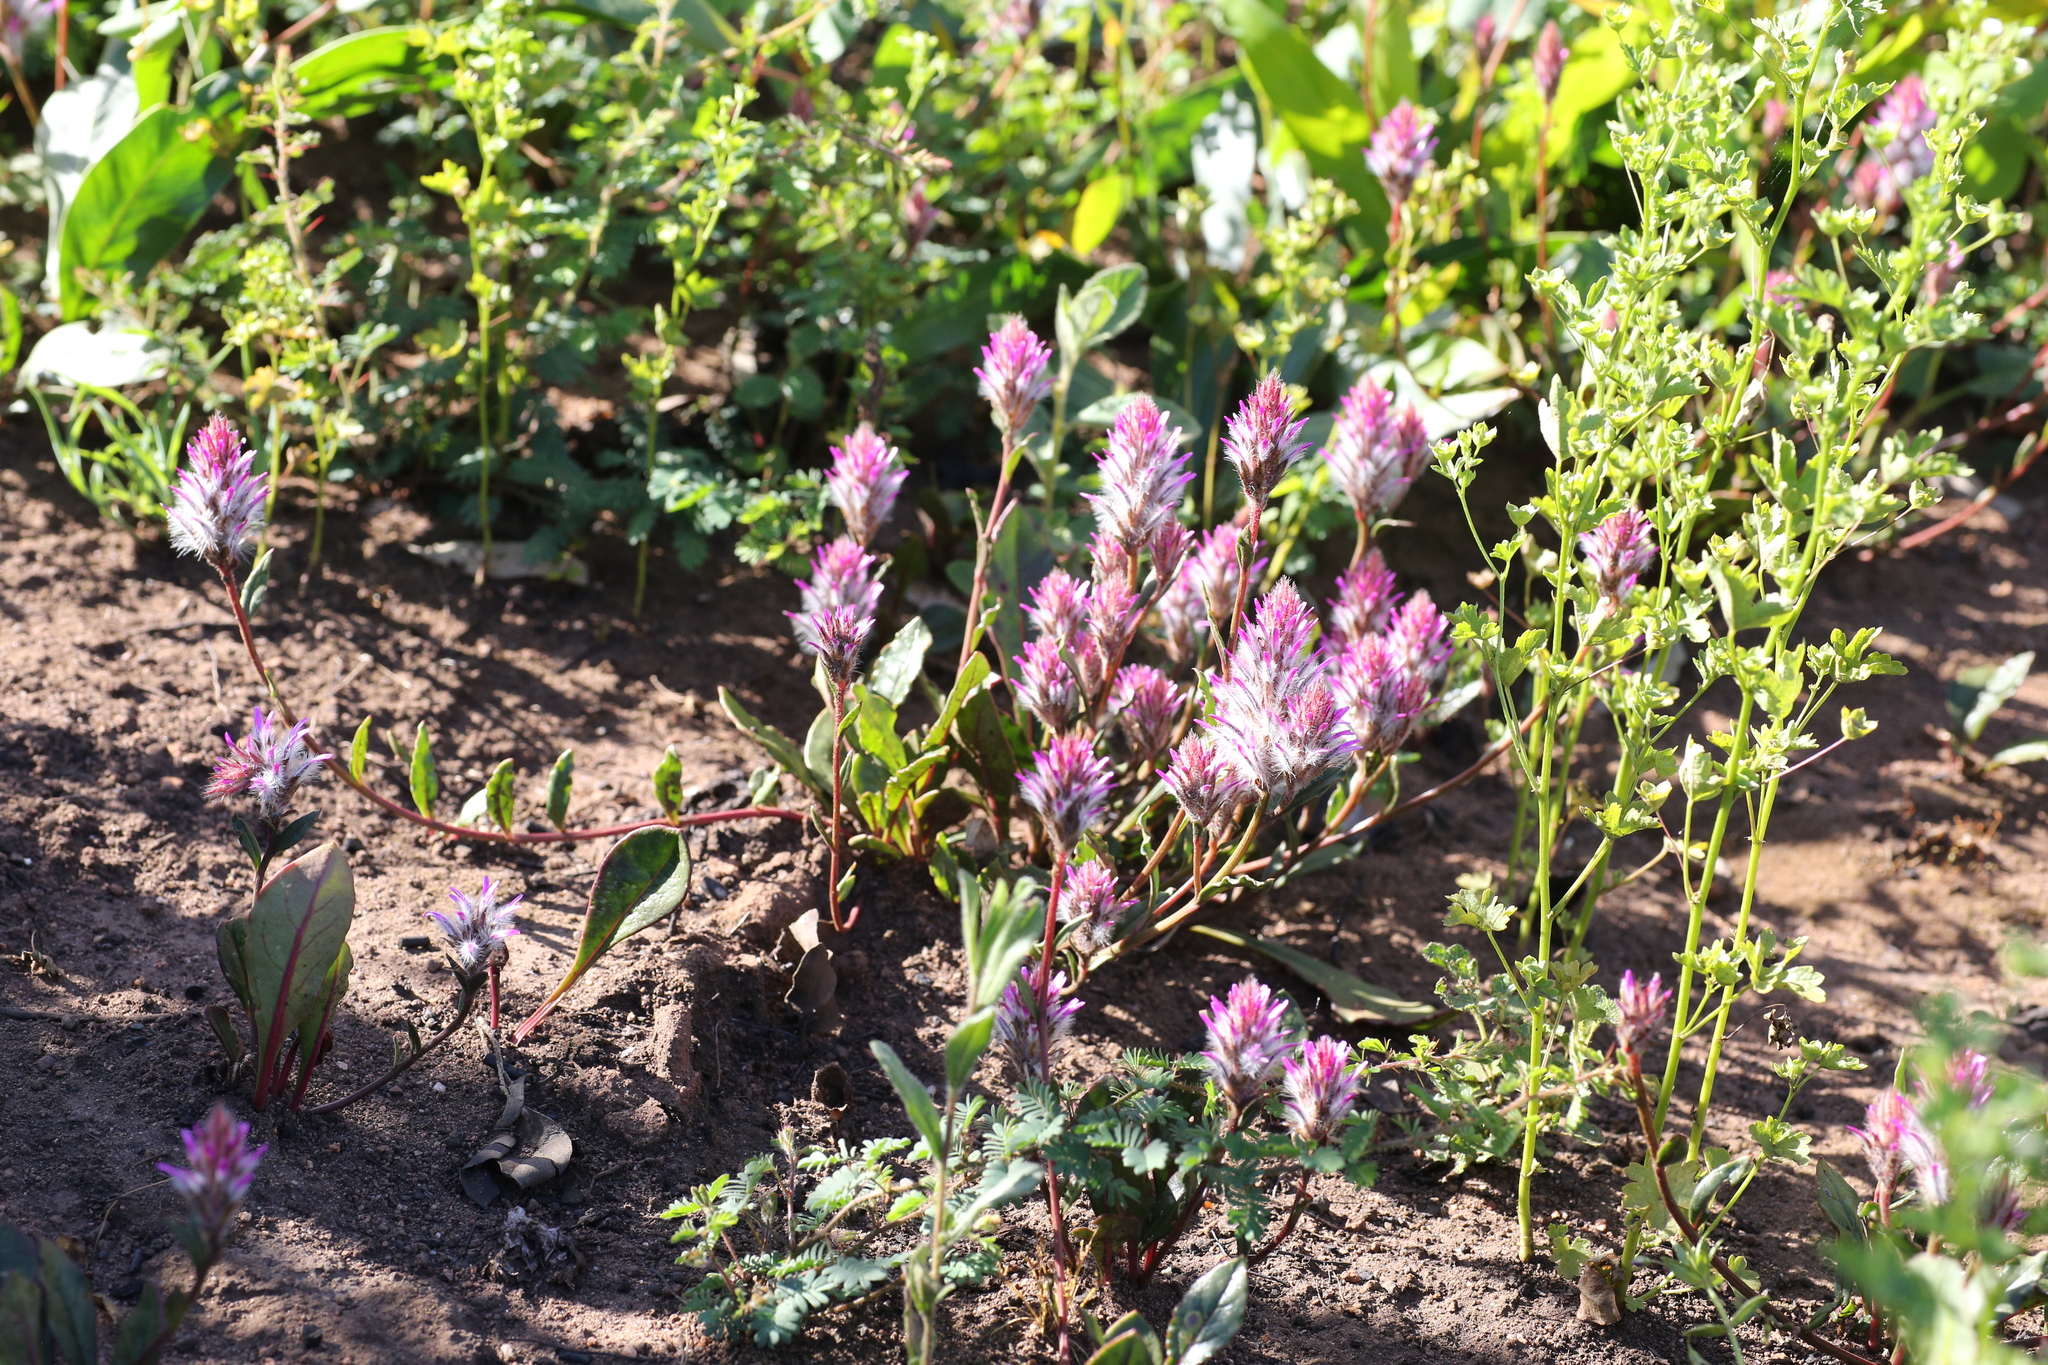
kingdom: Plantae
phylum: Tracheophyta
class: Magnoliopsida
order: Caryophyllales
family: Amaranthaceae
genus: Ptilotus
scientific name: Ptilotus manglesii
